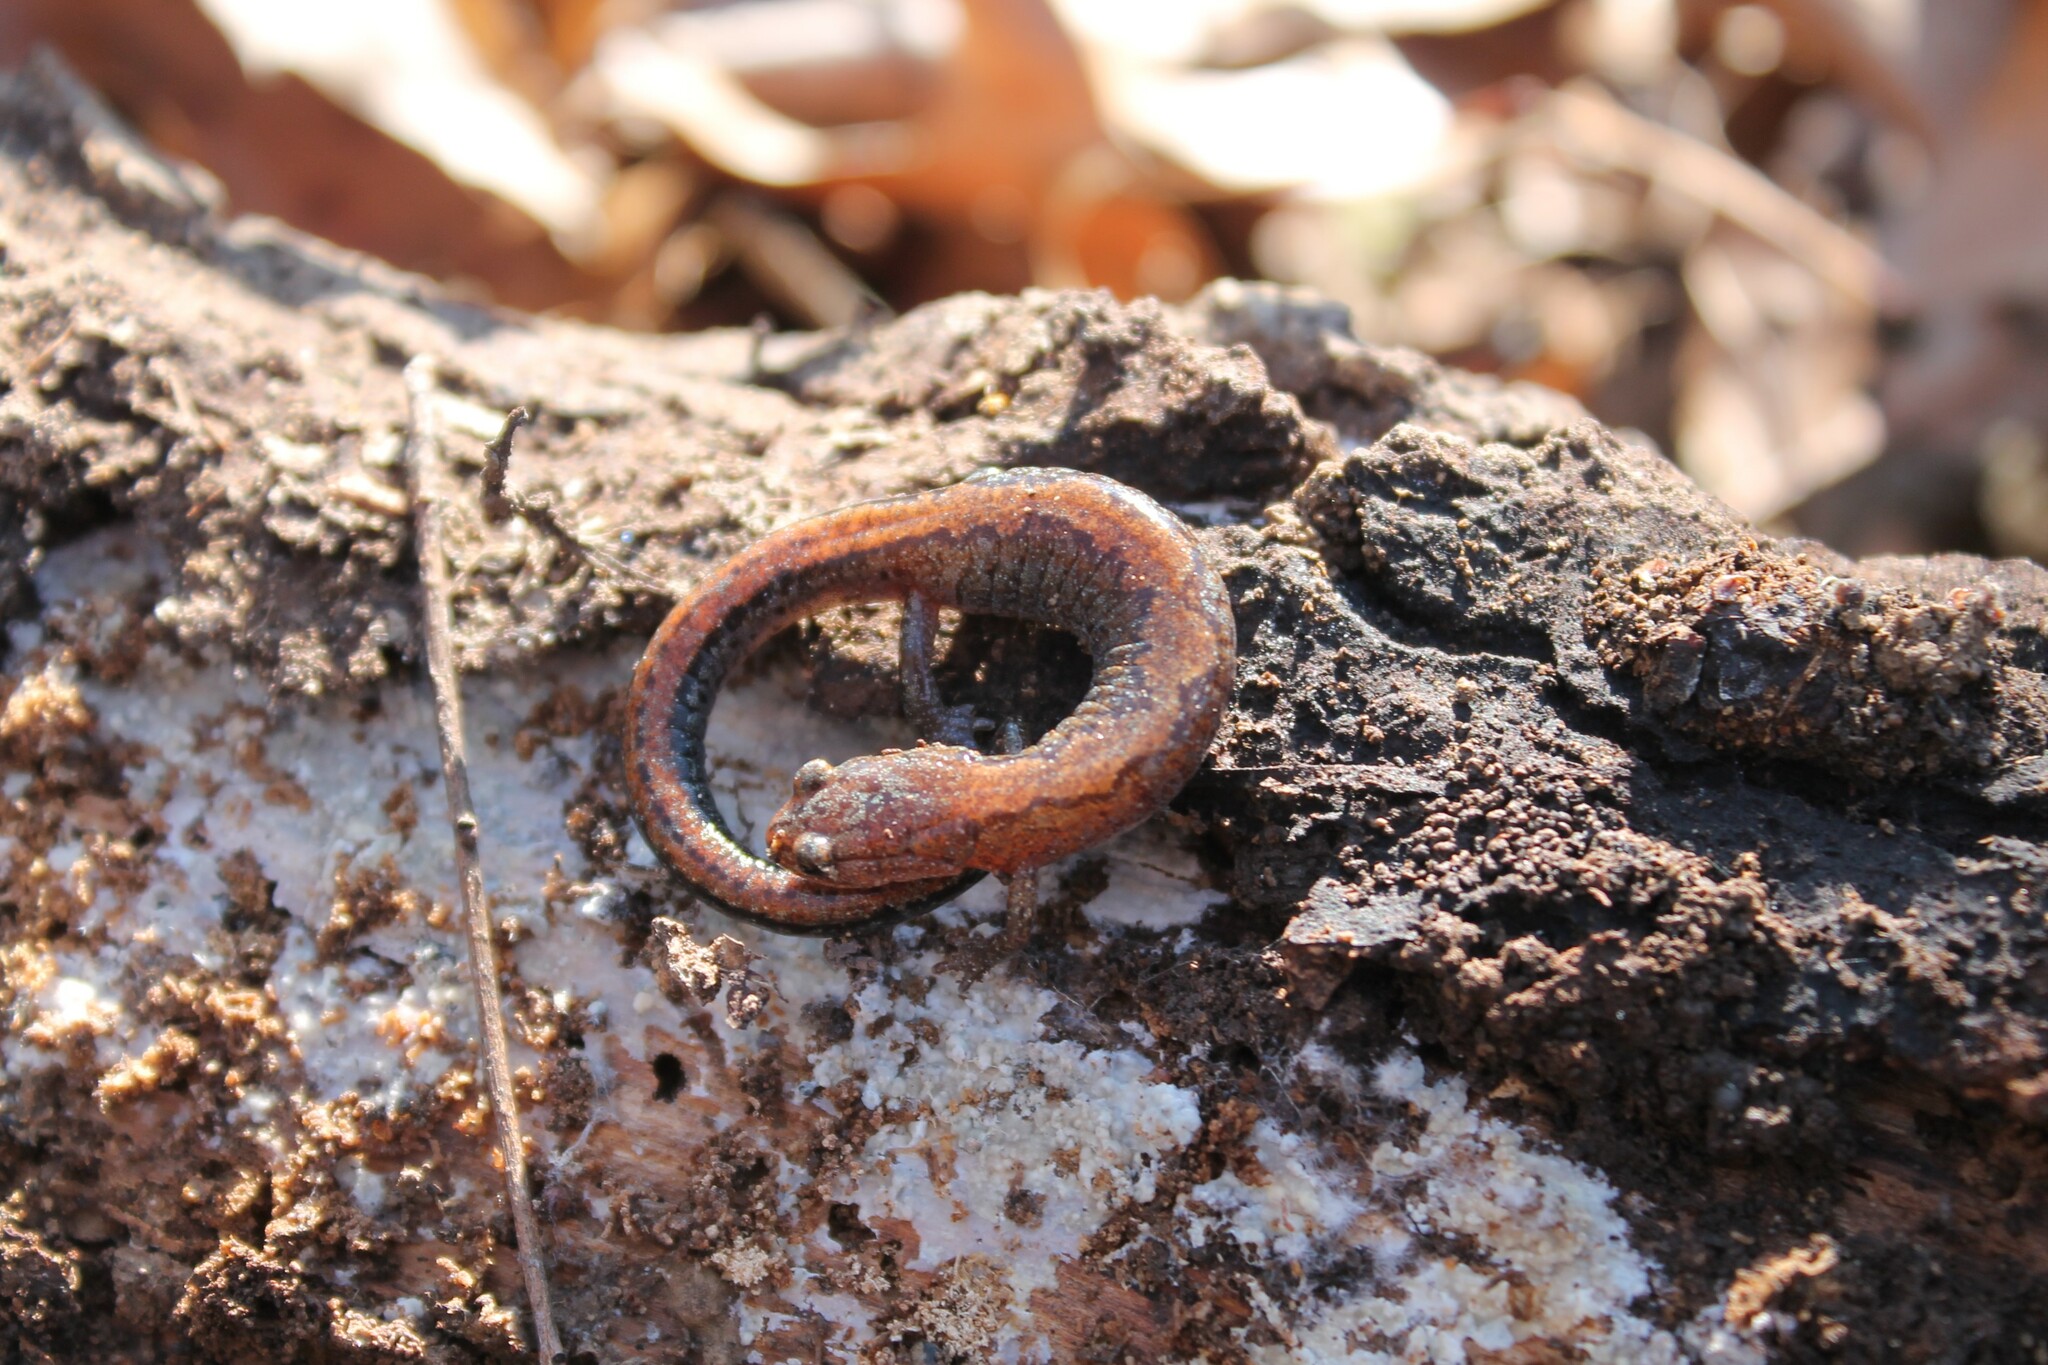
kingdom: Animalia
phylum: Chordata
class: Amphibia
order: Caudata
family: Plethodontidae
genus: Plethodon
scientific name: Plethodon dorsalis
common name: Northern zigzag salamander
